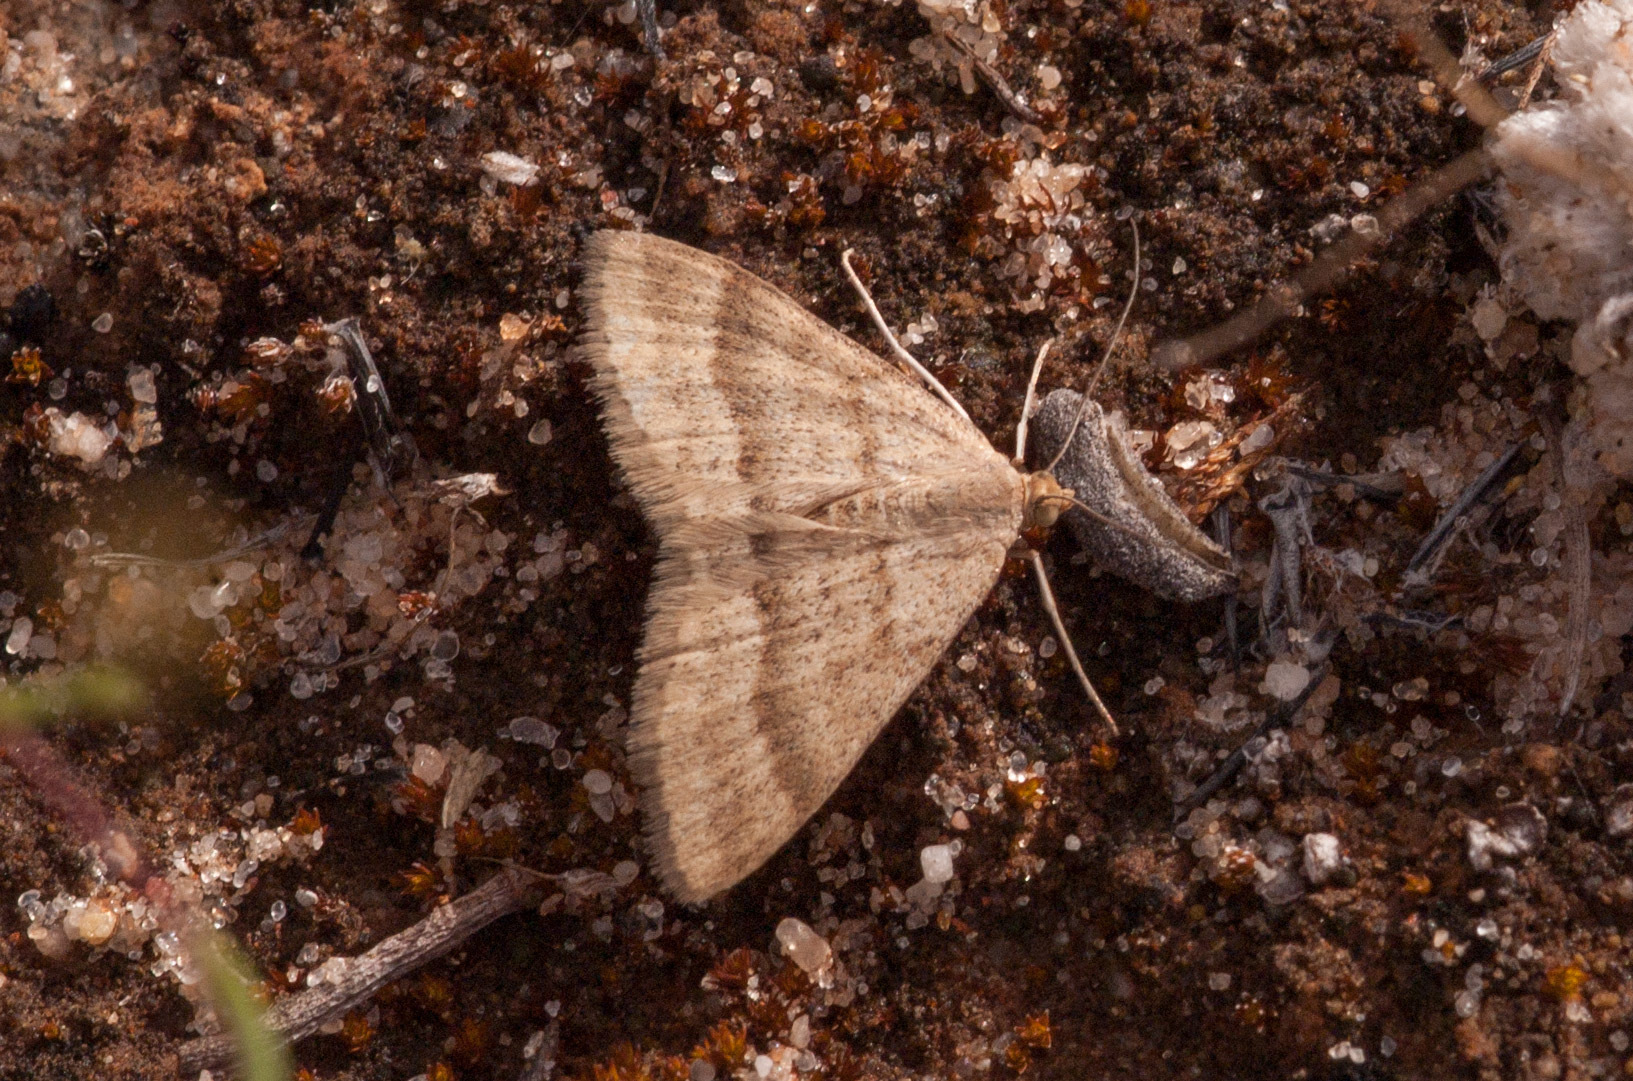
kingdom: Animalia
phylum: Arthropoda
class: Insecta
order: Lepidoptera
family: Geometridae
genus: Scopula
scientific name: Scopula lydia
